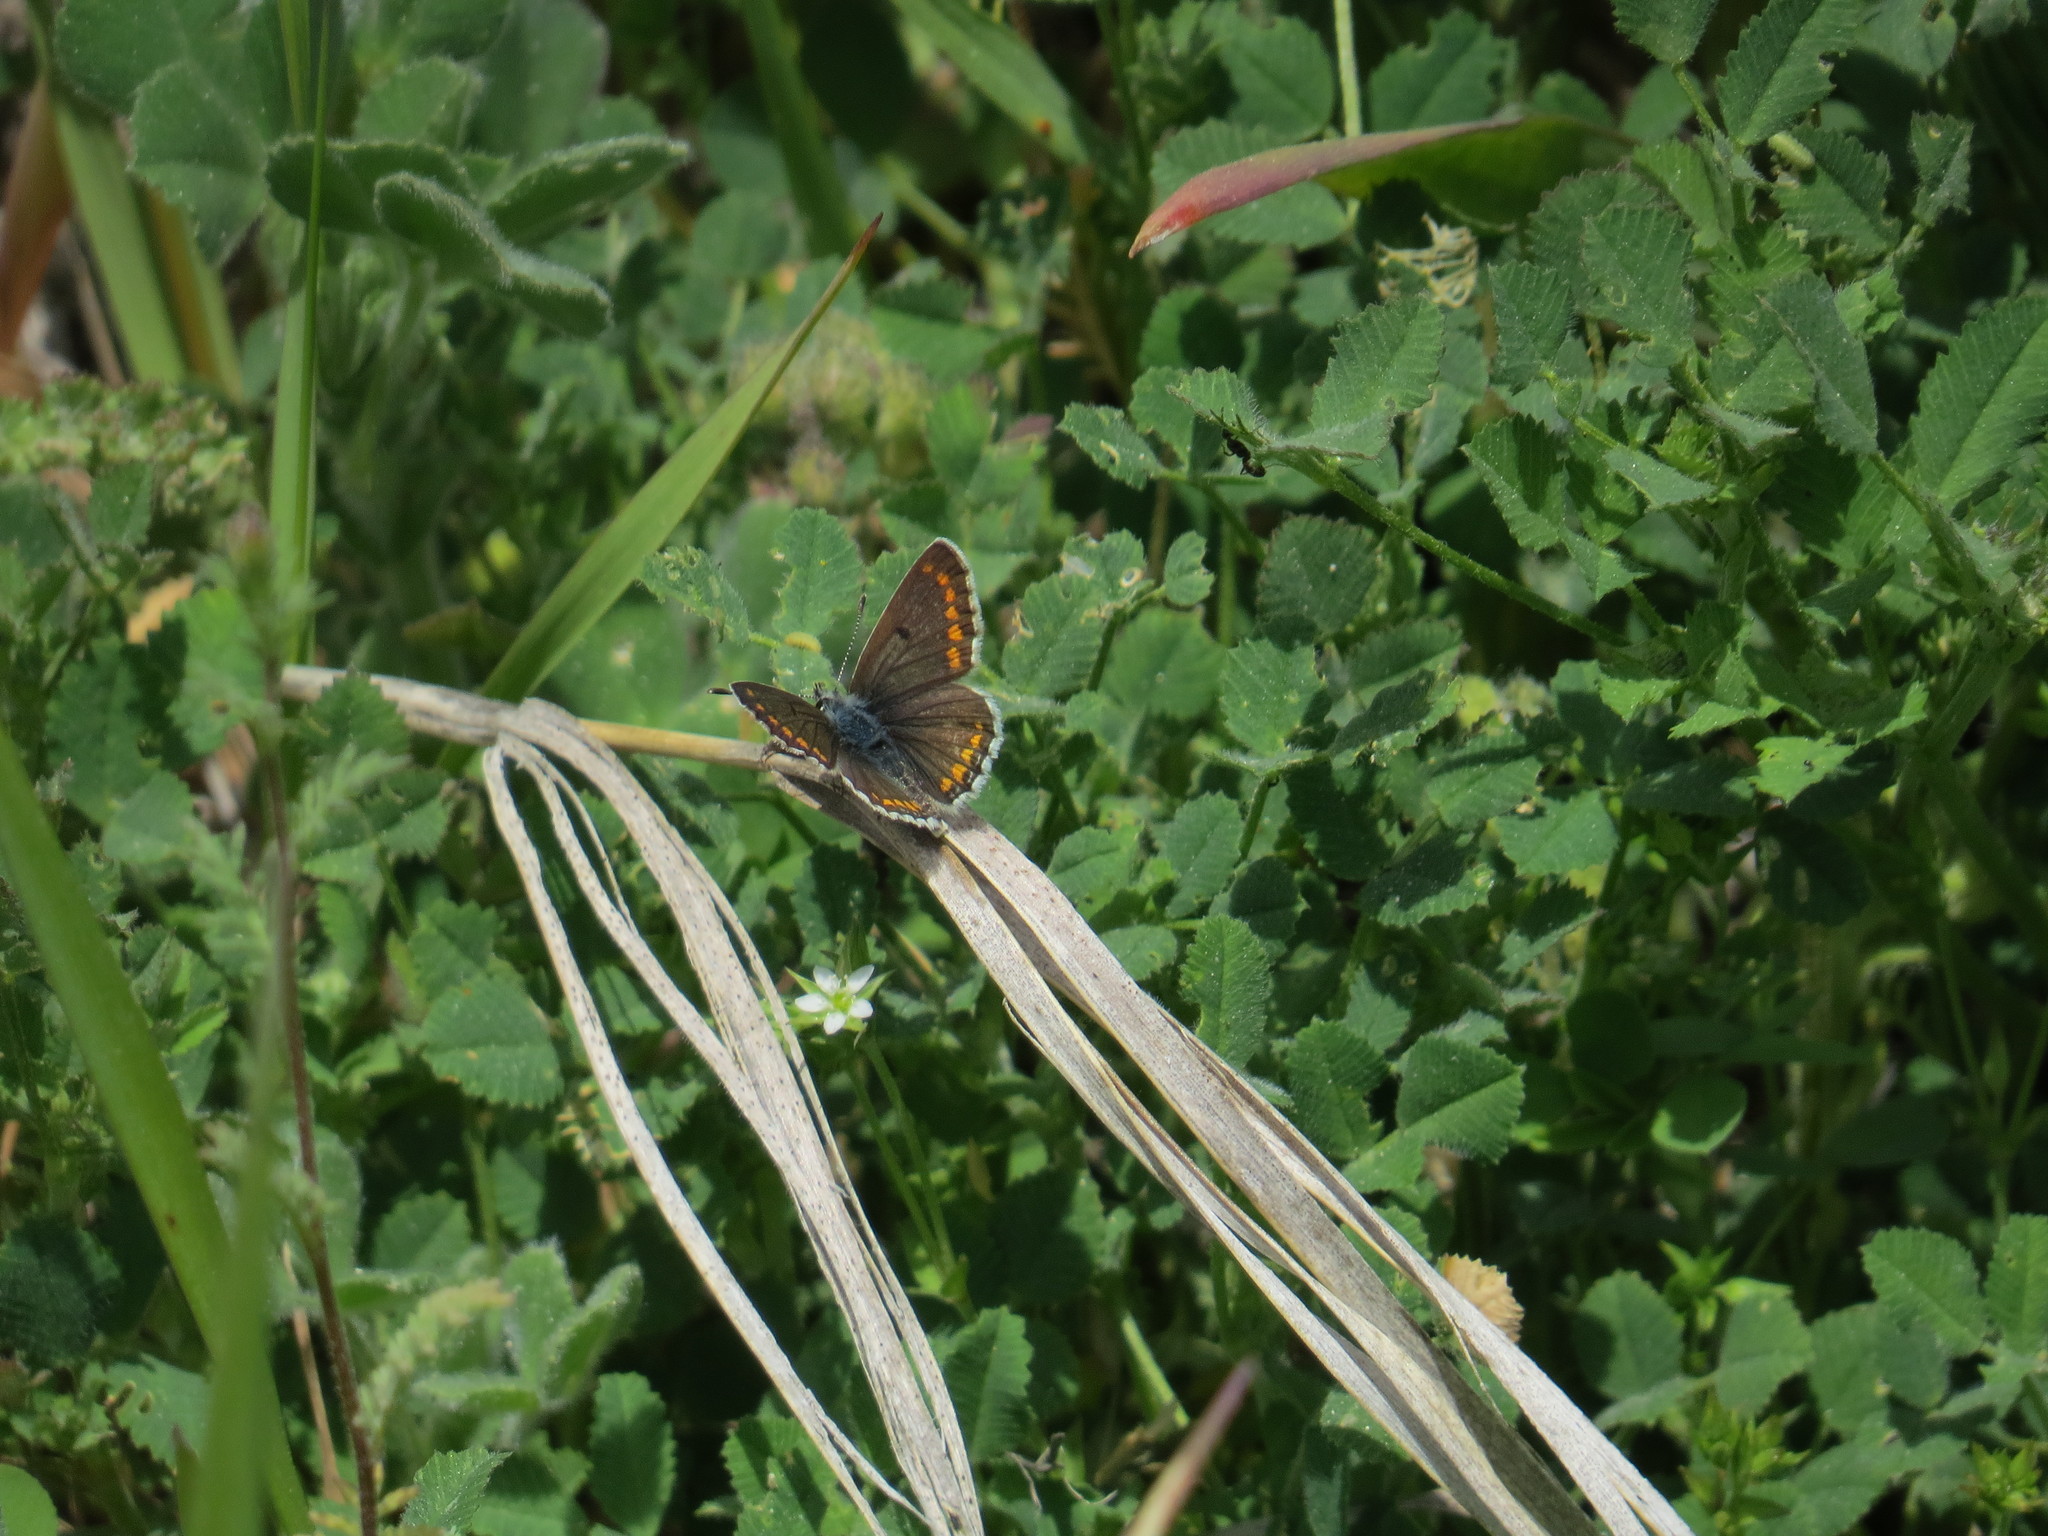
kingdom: Animalia
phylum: Arthropoda
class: Insecta
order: Lepidoptera
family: Lycaenidae
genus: Aricia
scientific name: Aricia agestis
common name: Brown argus
